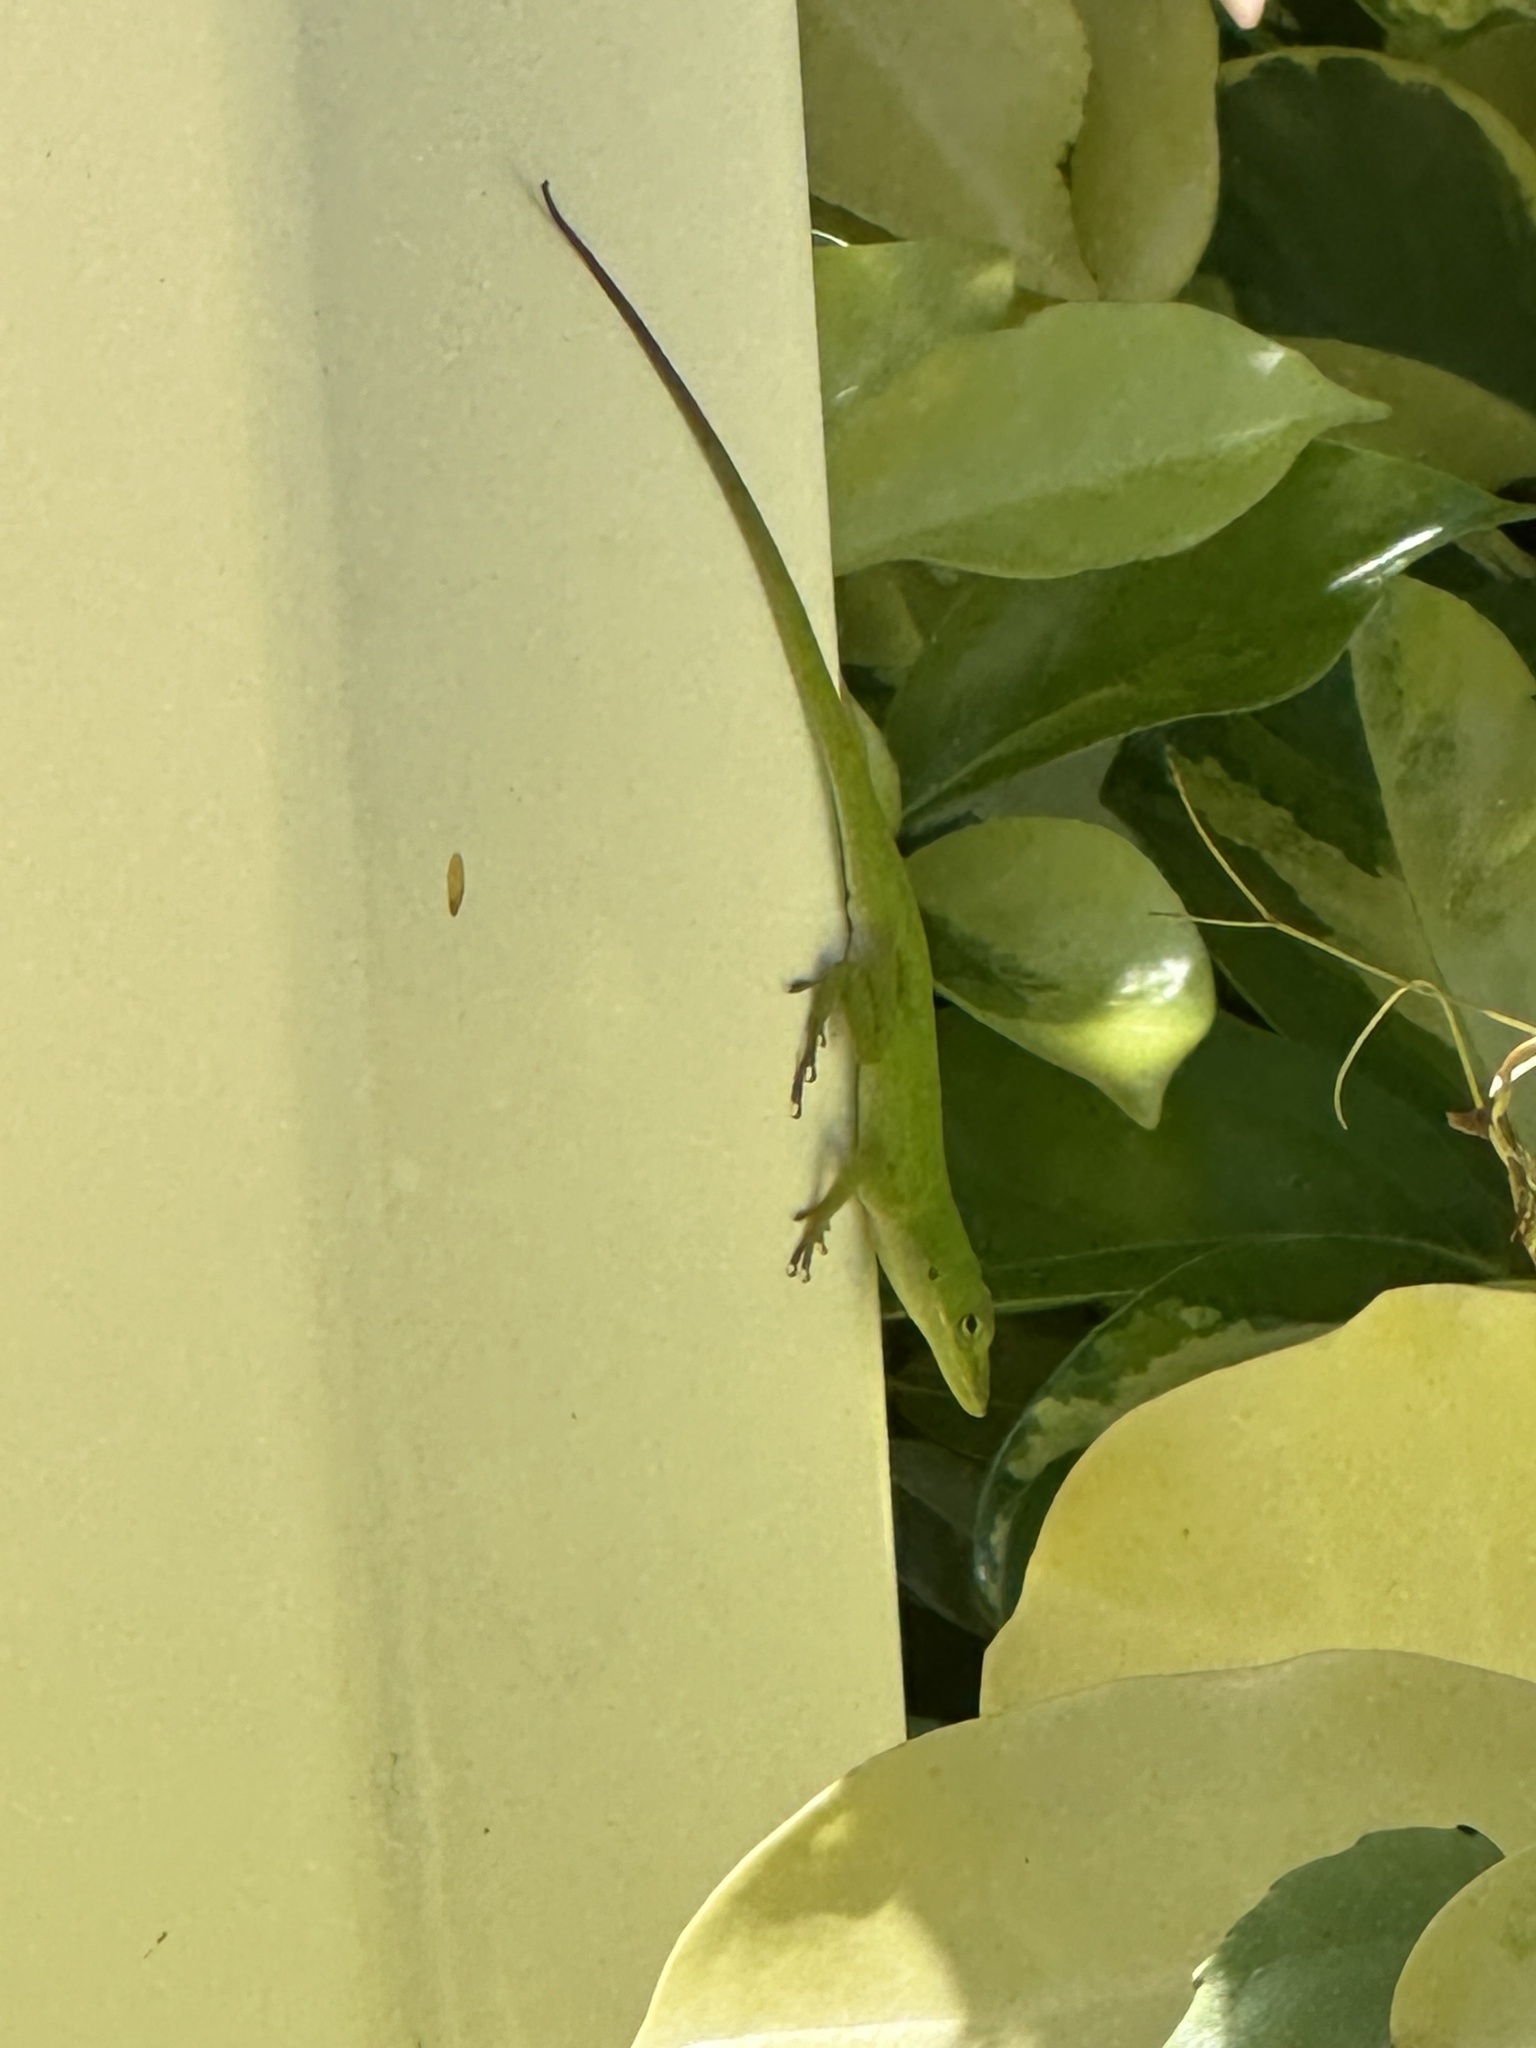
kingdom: Animalia
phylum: Chordata
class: Squamata
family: Dactyloidae
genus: Anolis
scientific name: Anolis carolinensis
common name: Green anole
